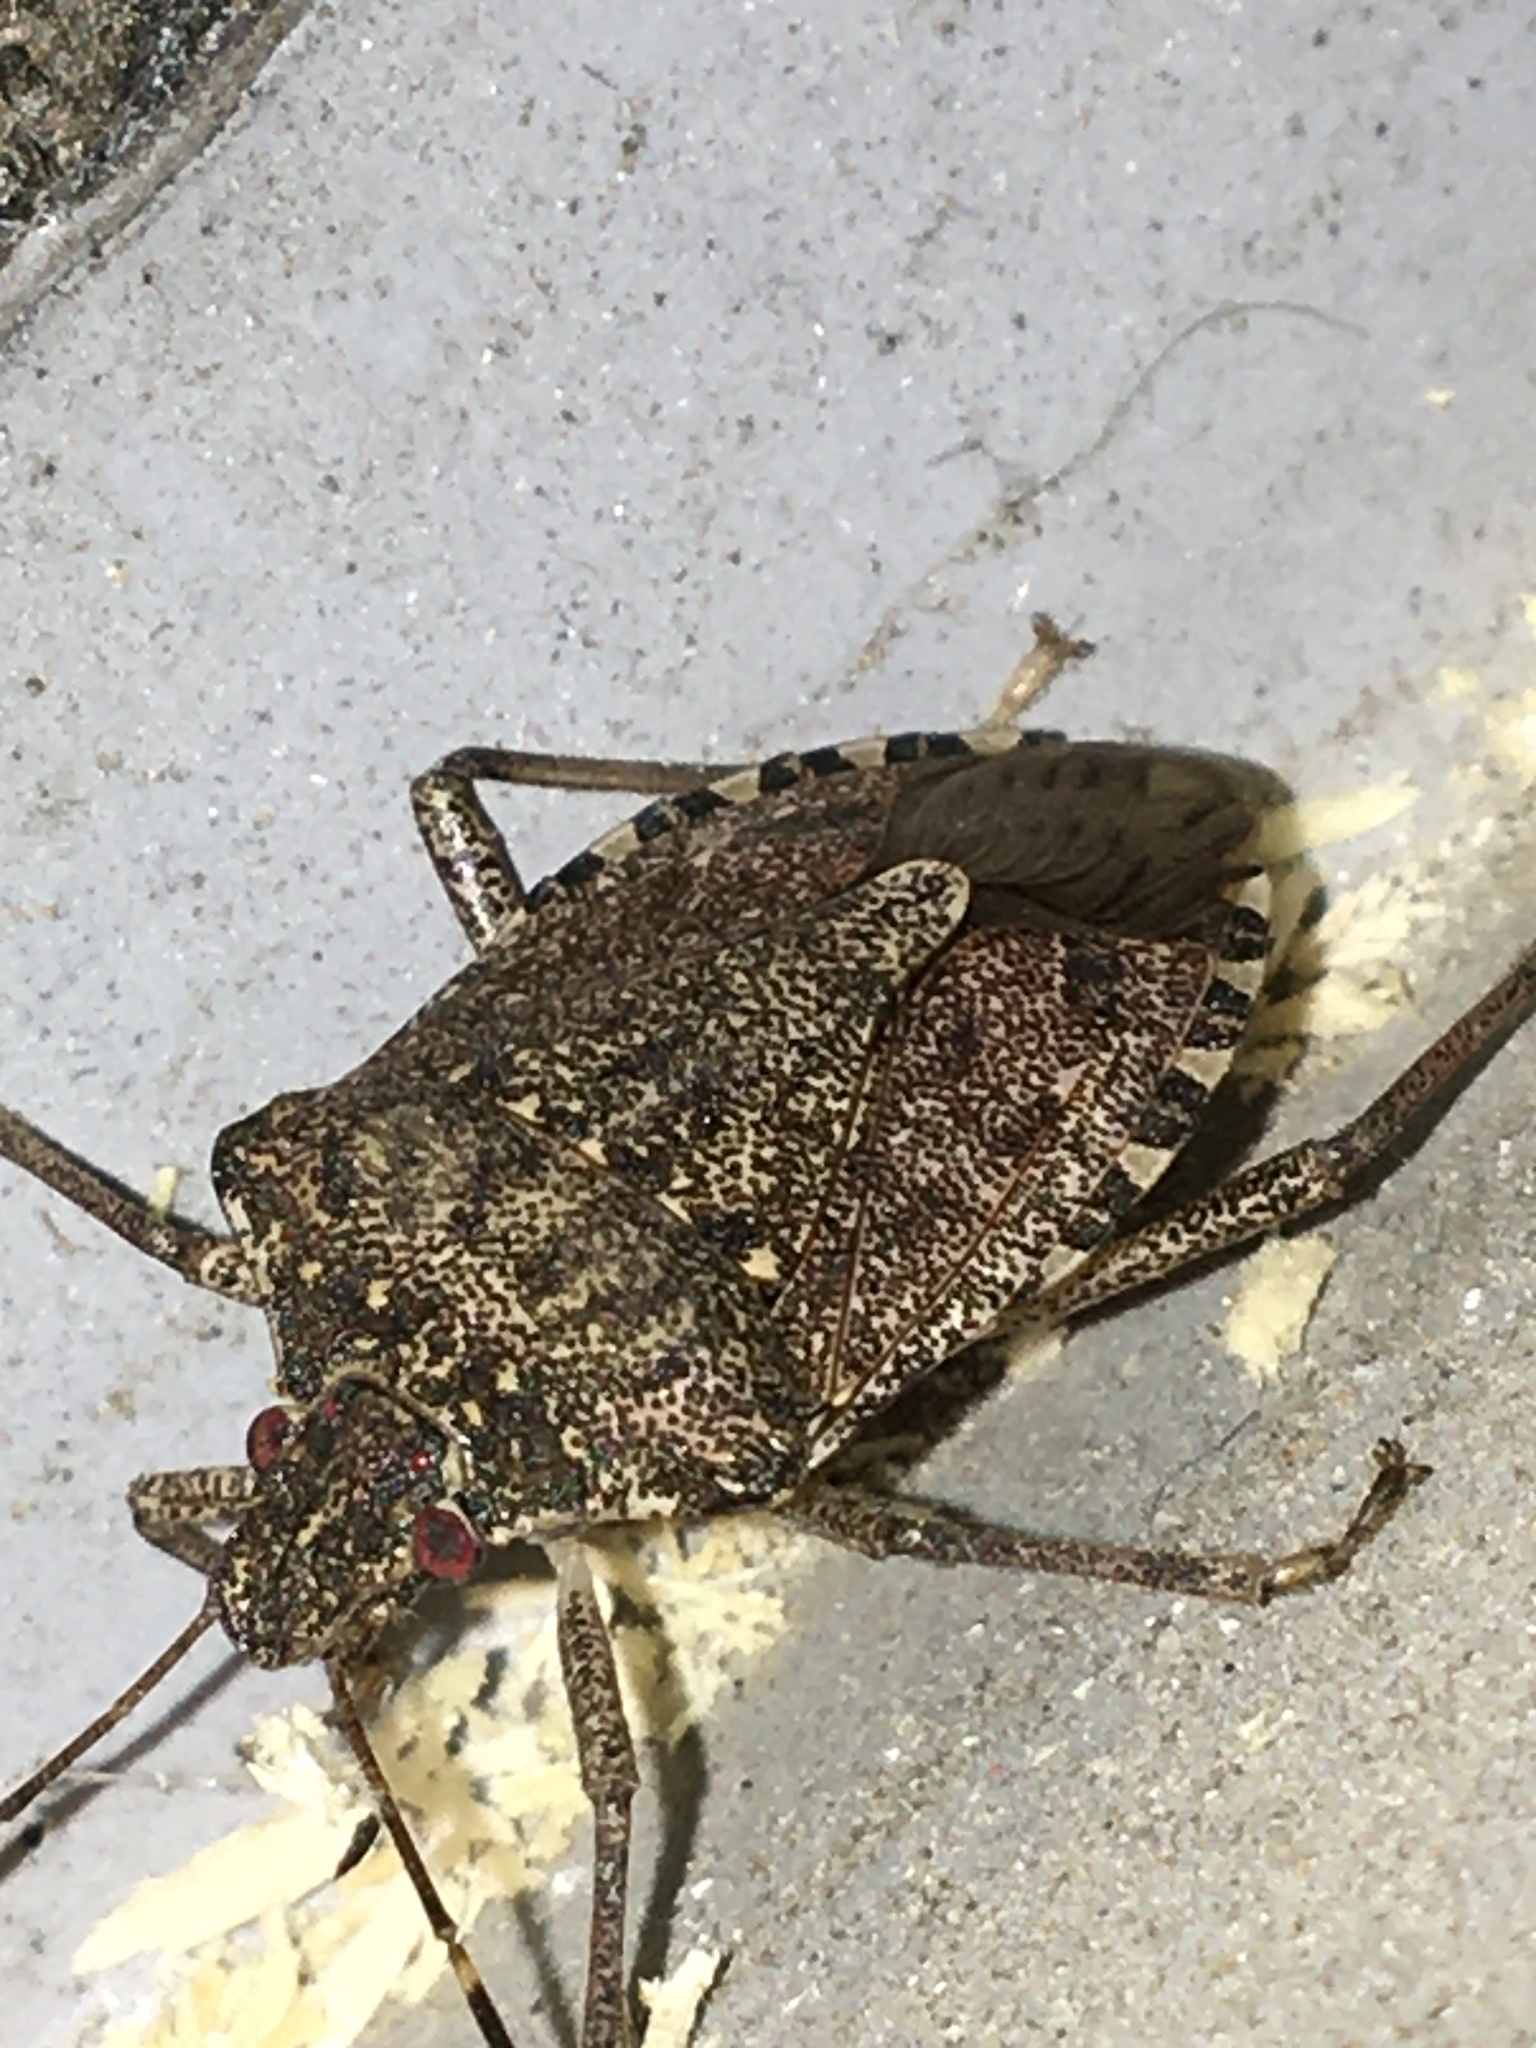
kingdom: Animalia
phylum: Arthropoda
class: Insecta
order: Hemiptera
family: Pentatomidae
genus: Halyomorpha
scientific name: Halyomorpha halys
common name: Brown marmorated stink bug
